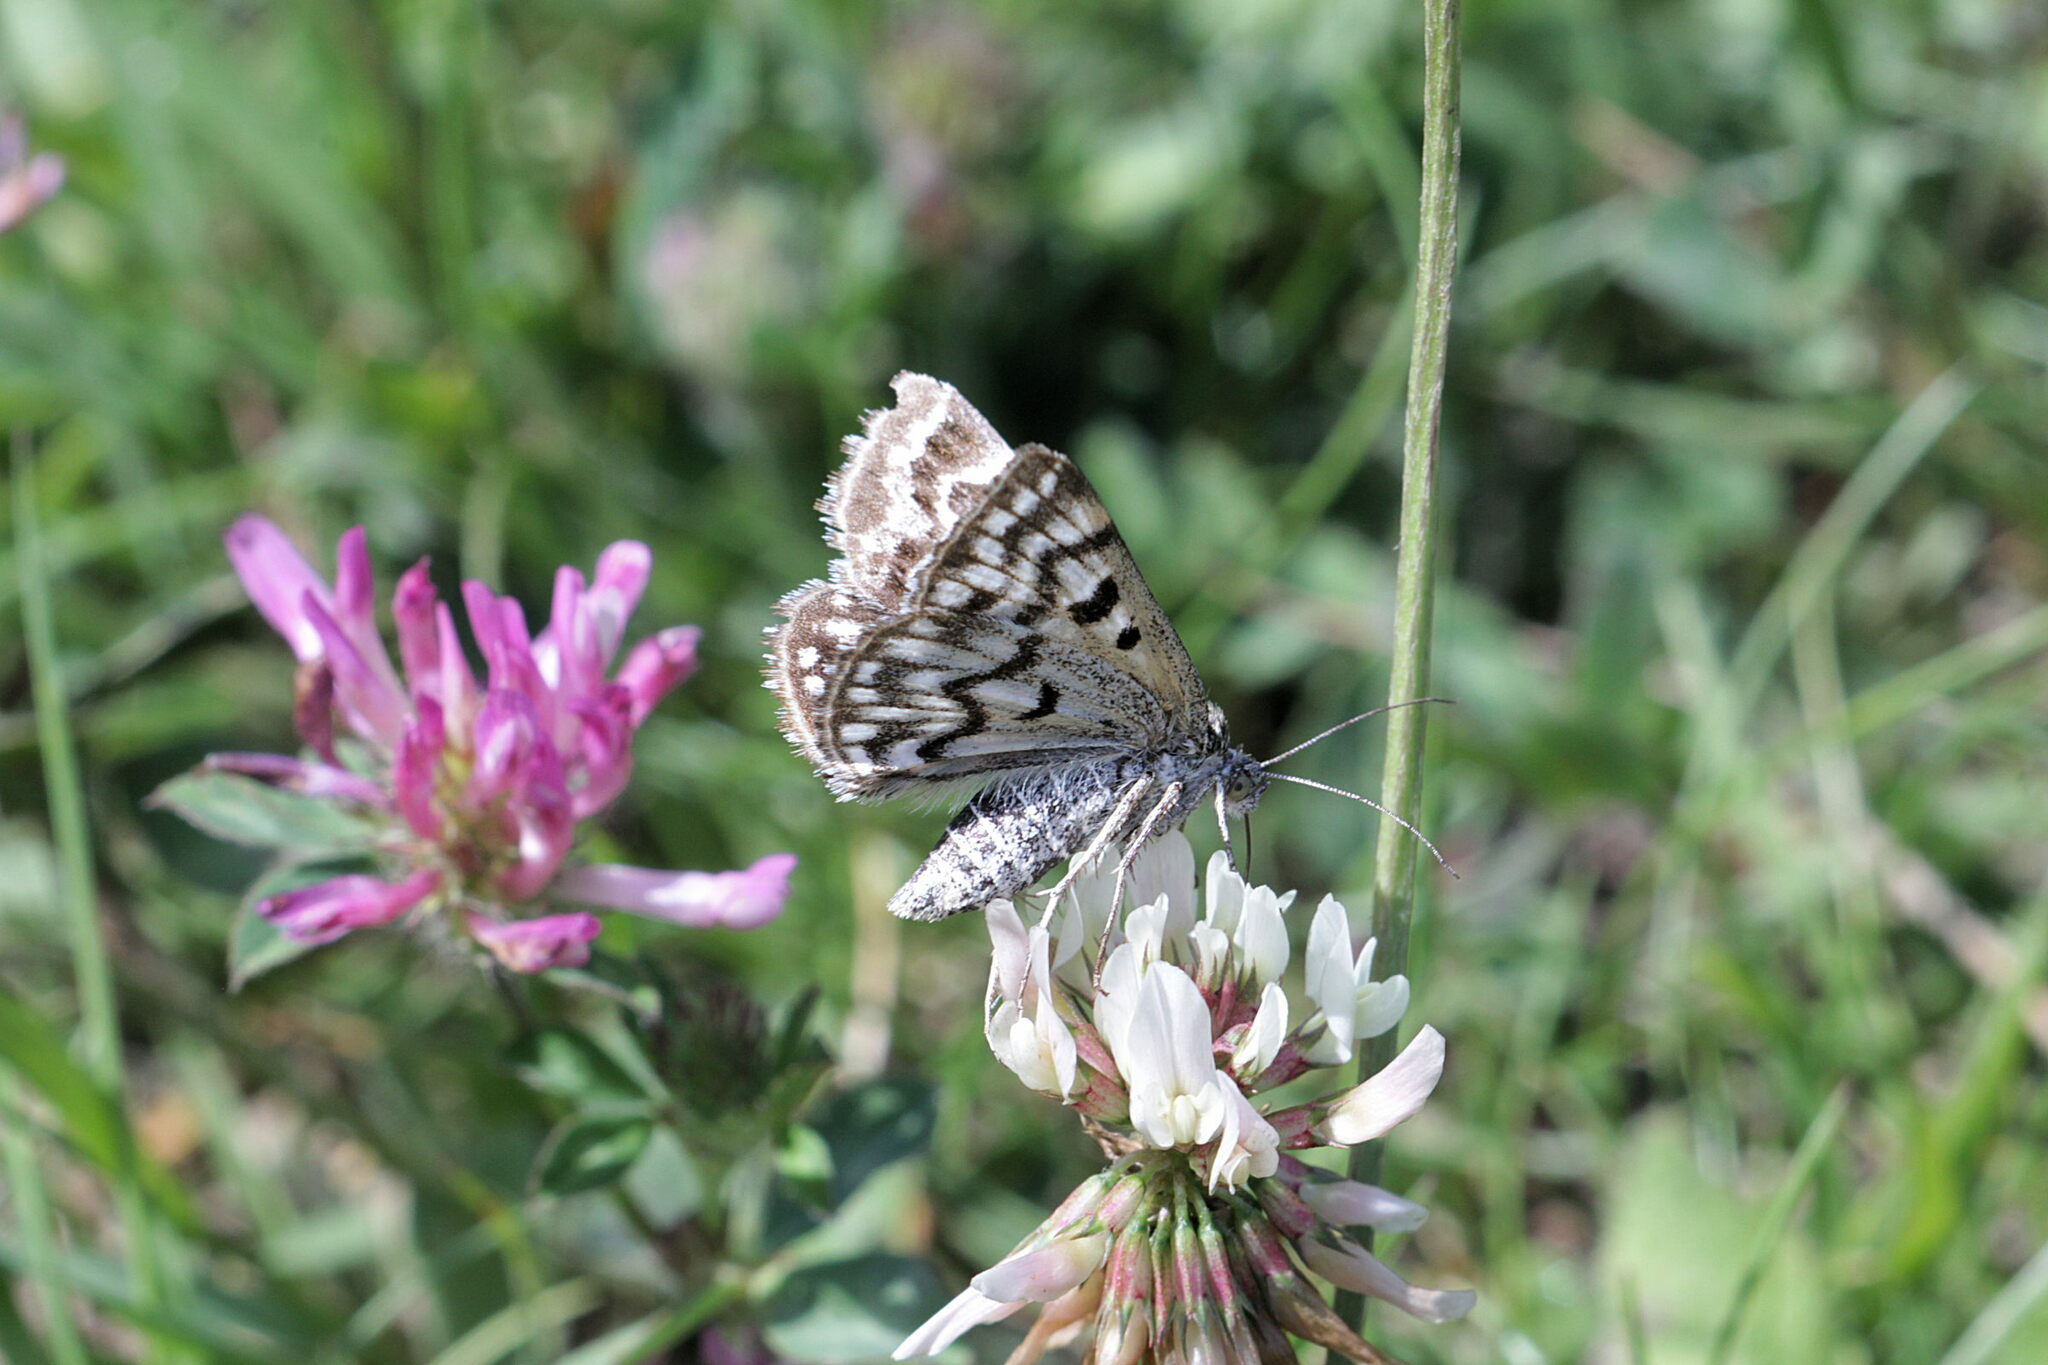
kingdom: Animalia
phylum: Arthropoda
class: Insecta
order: Lepidoptera
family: Erebidae
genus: Callistege
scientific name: Callistege mi
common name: Mother shipton
